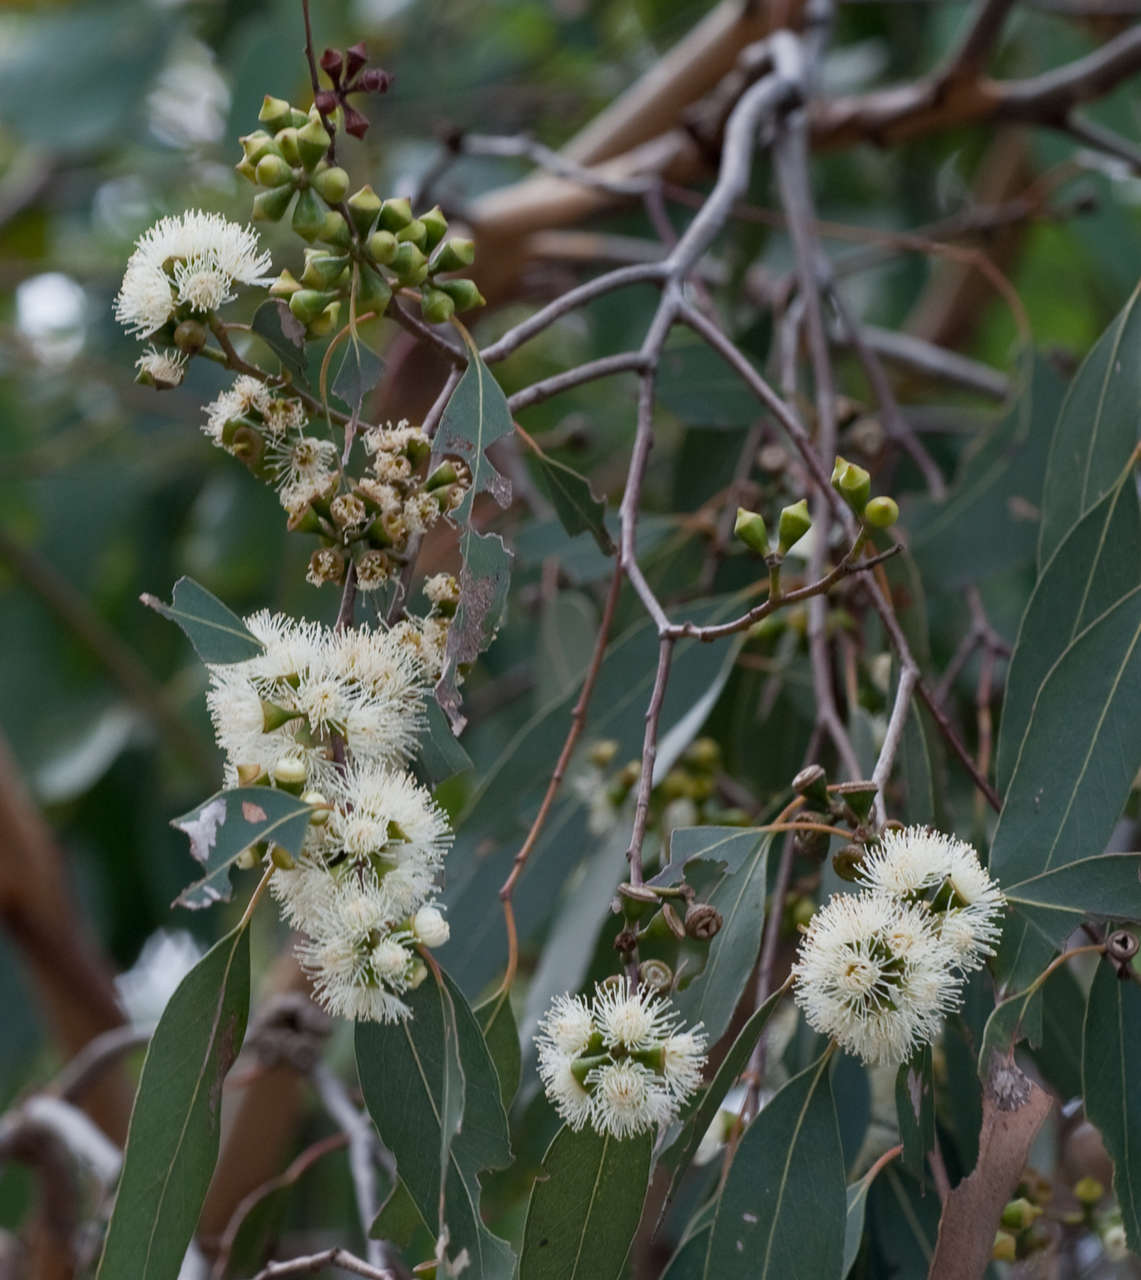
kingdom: Plantae
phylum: Tracheophyta
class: Magnoliopsida
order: Myrtales
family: Myrtaceae
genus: Eucalyptus
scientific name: Eucalyptus ovata
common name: Black-gum
